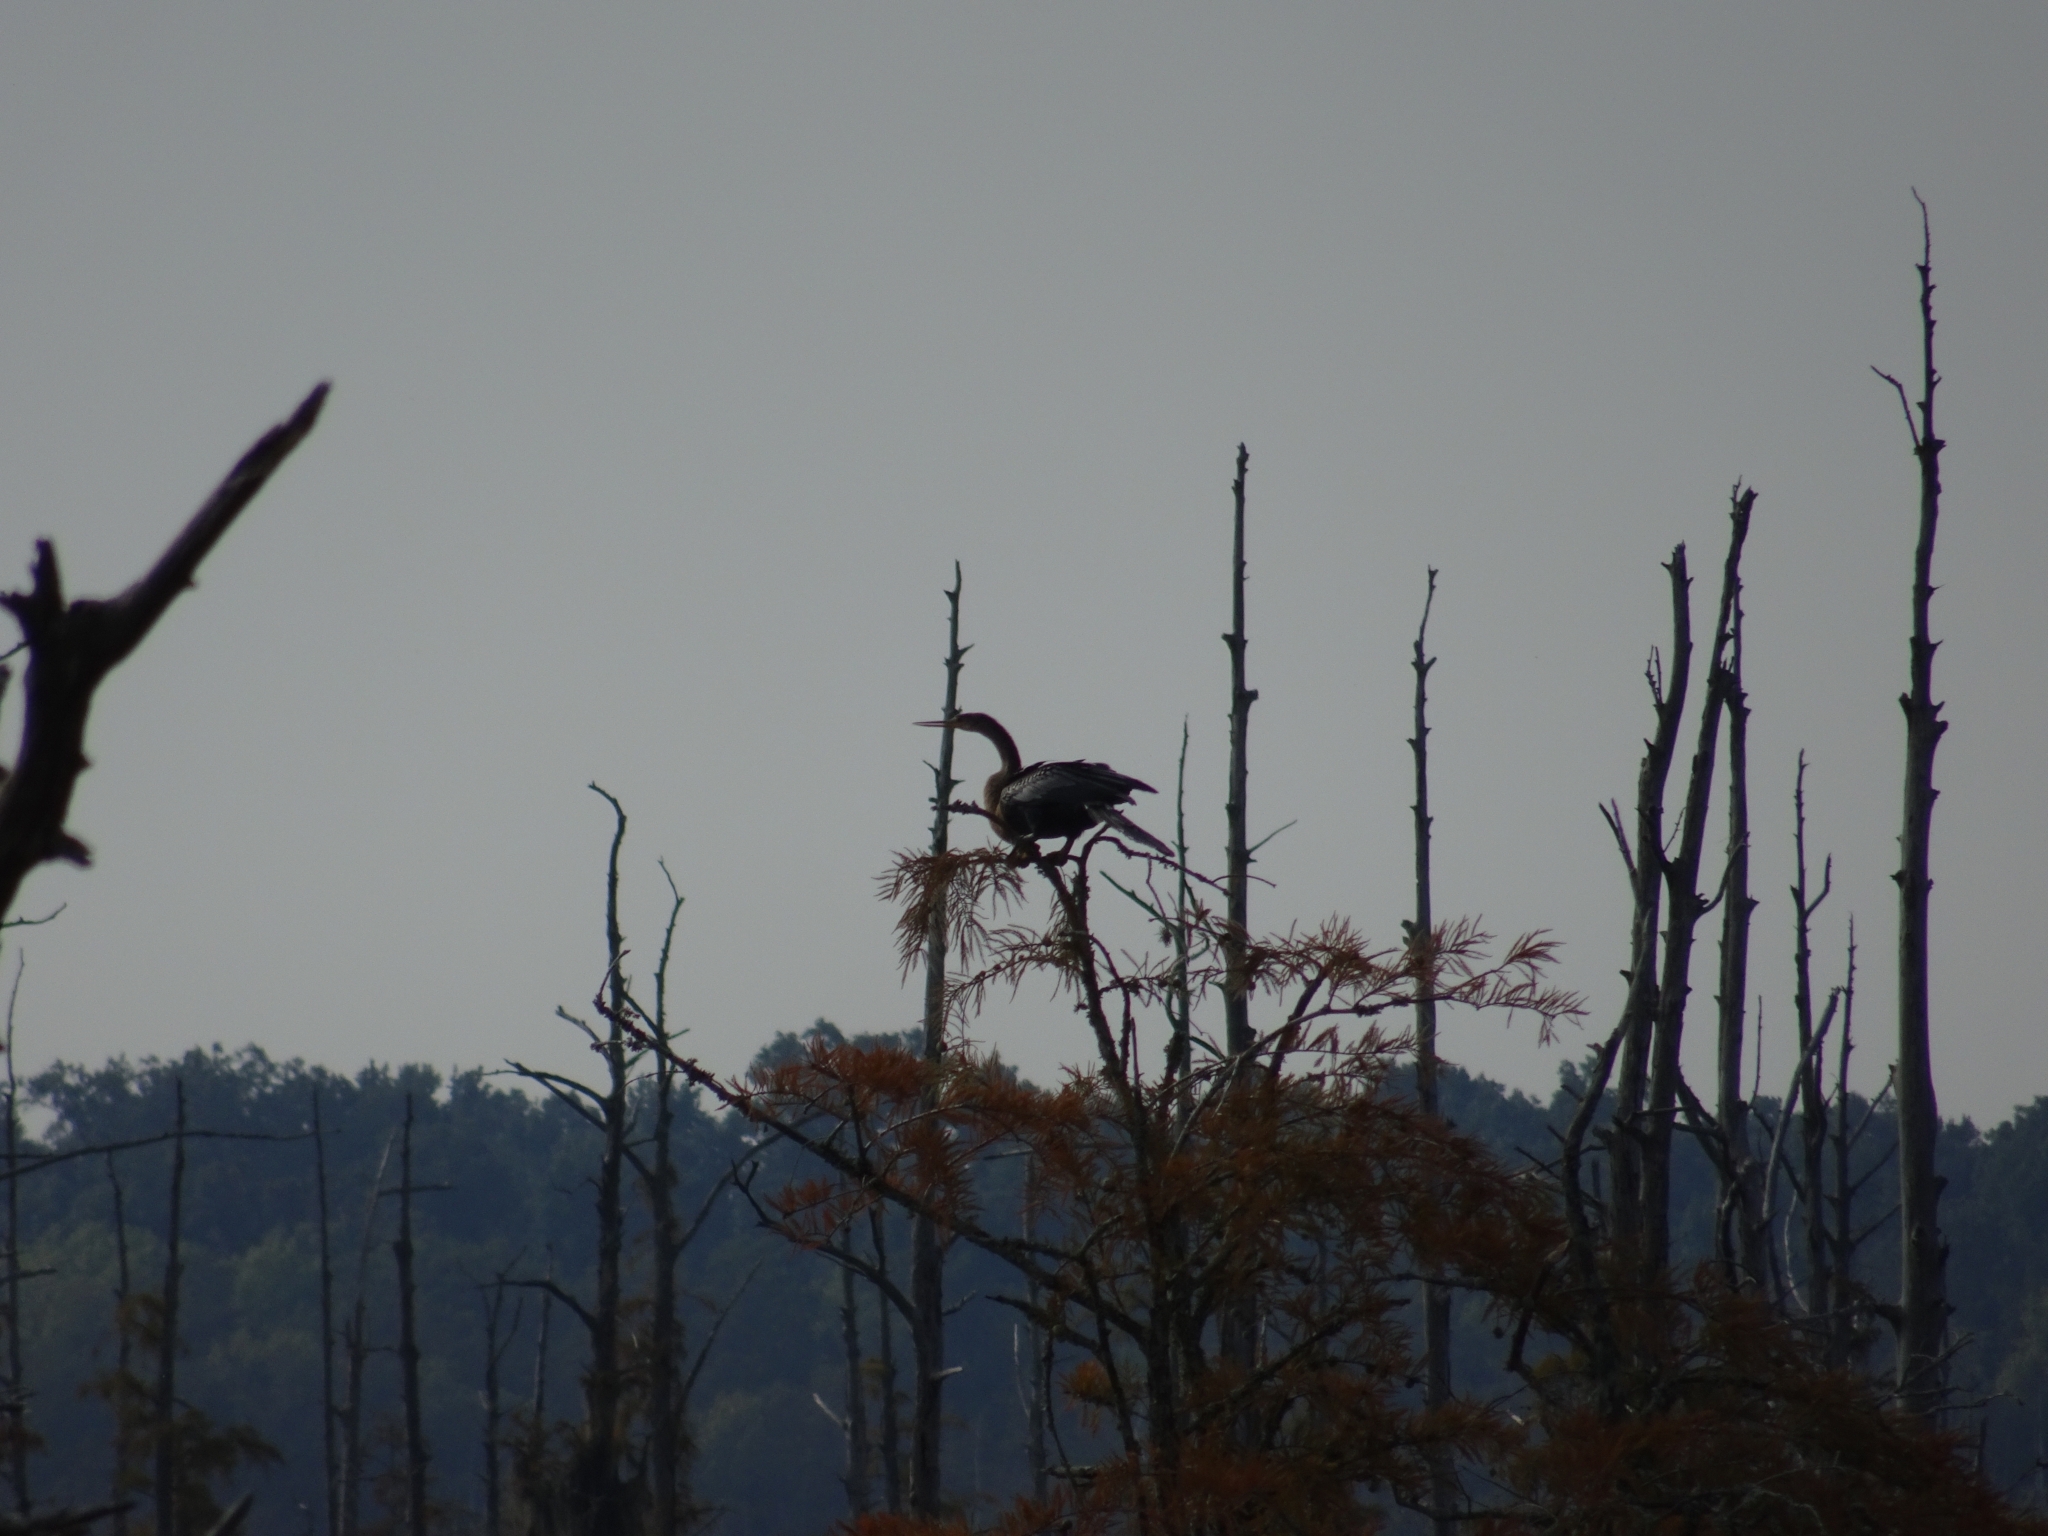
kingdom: Animalia
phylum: Chordata
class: Aves
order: Suliformes
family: Anhingidae
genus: Anhinga
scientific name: Anhinga anhinga
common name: Anhinga
